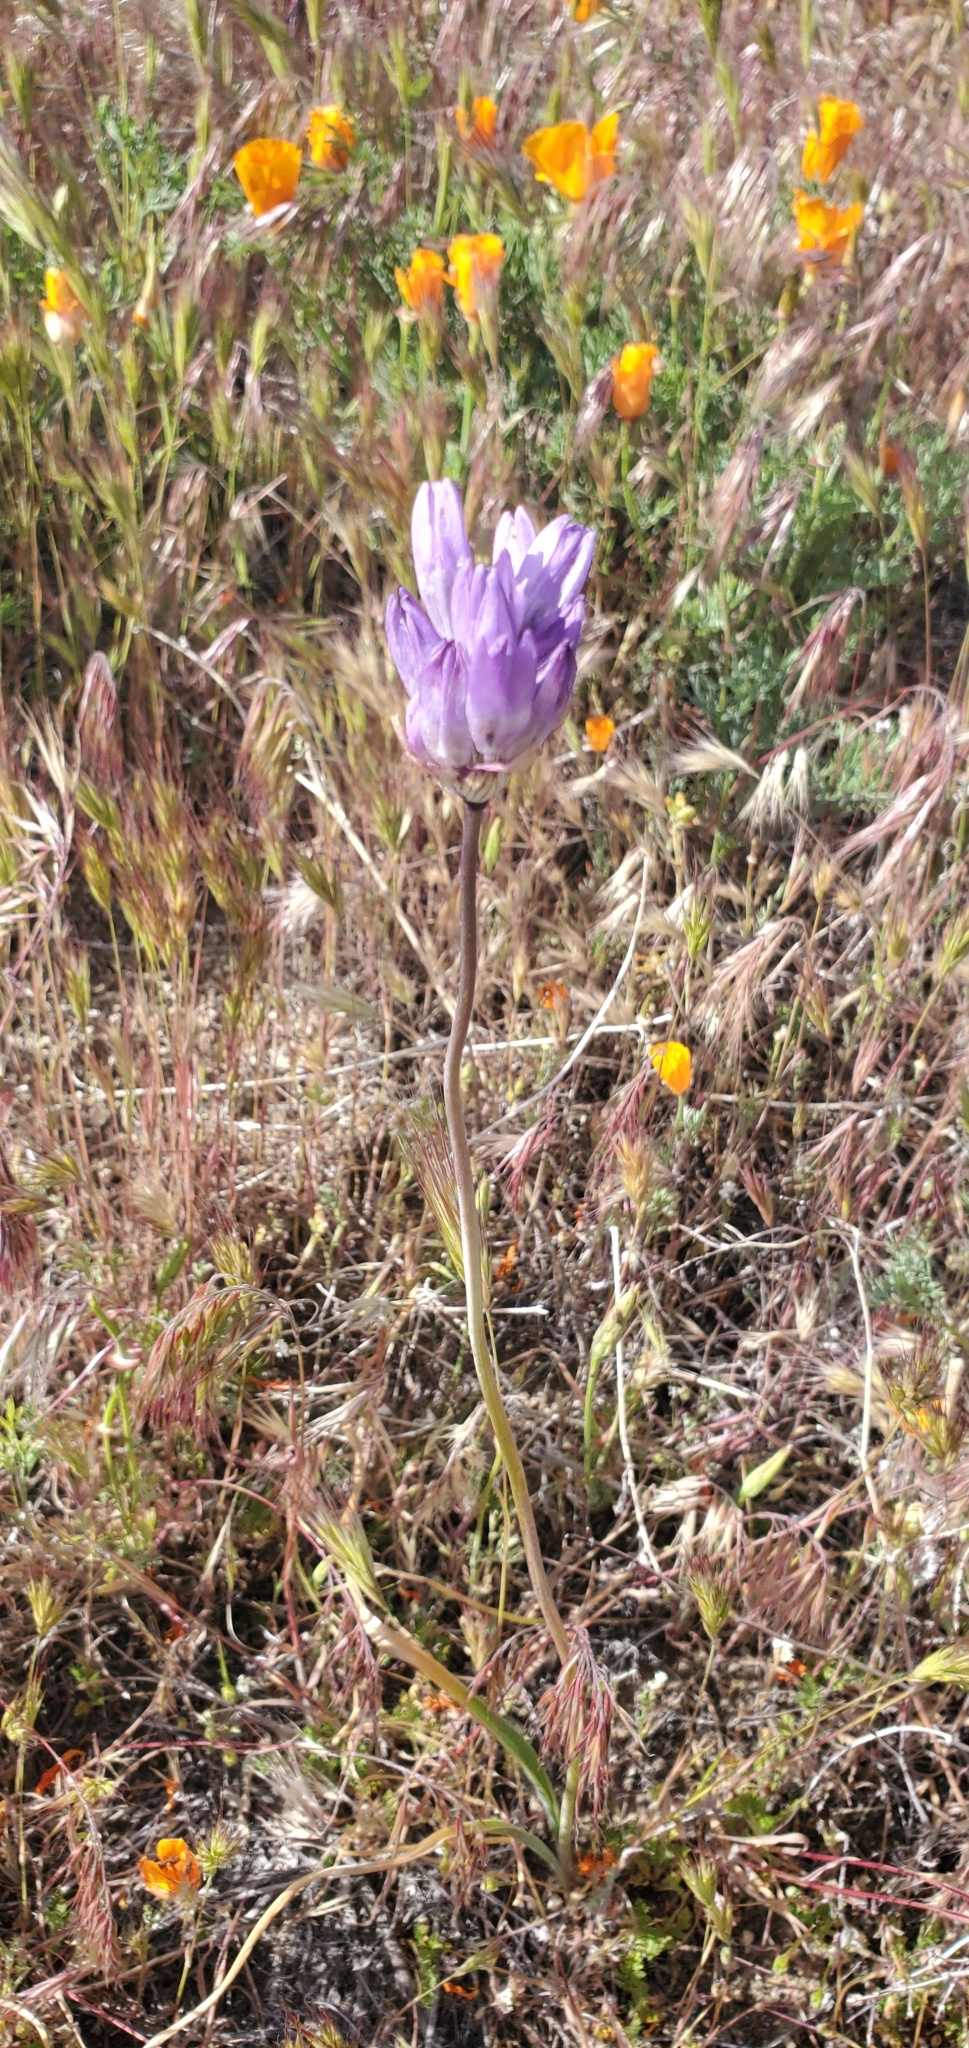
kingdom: Plantae
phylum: Tracheophyta
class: Liliopsida
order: Asparagales
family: Asparagaceae
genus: Dipterostemon
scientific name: Dipterostemon capitatus
